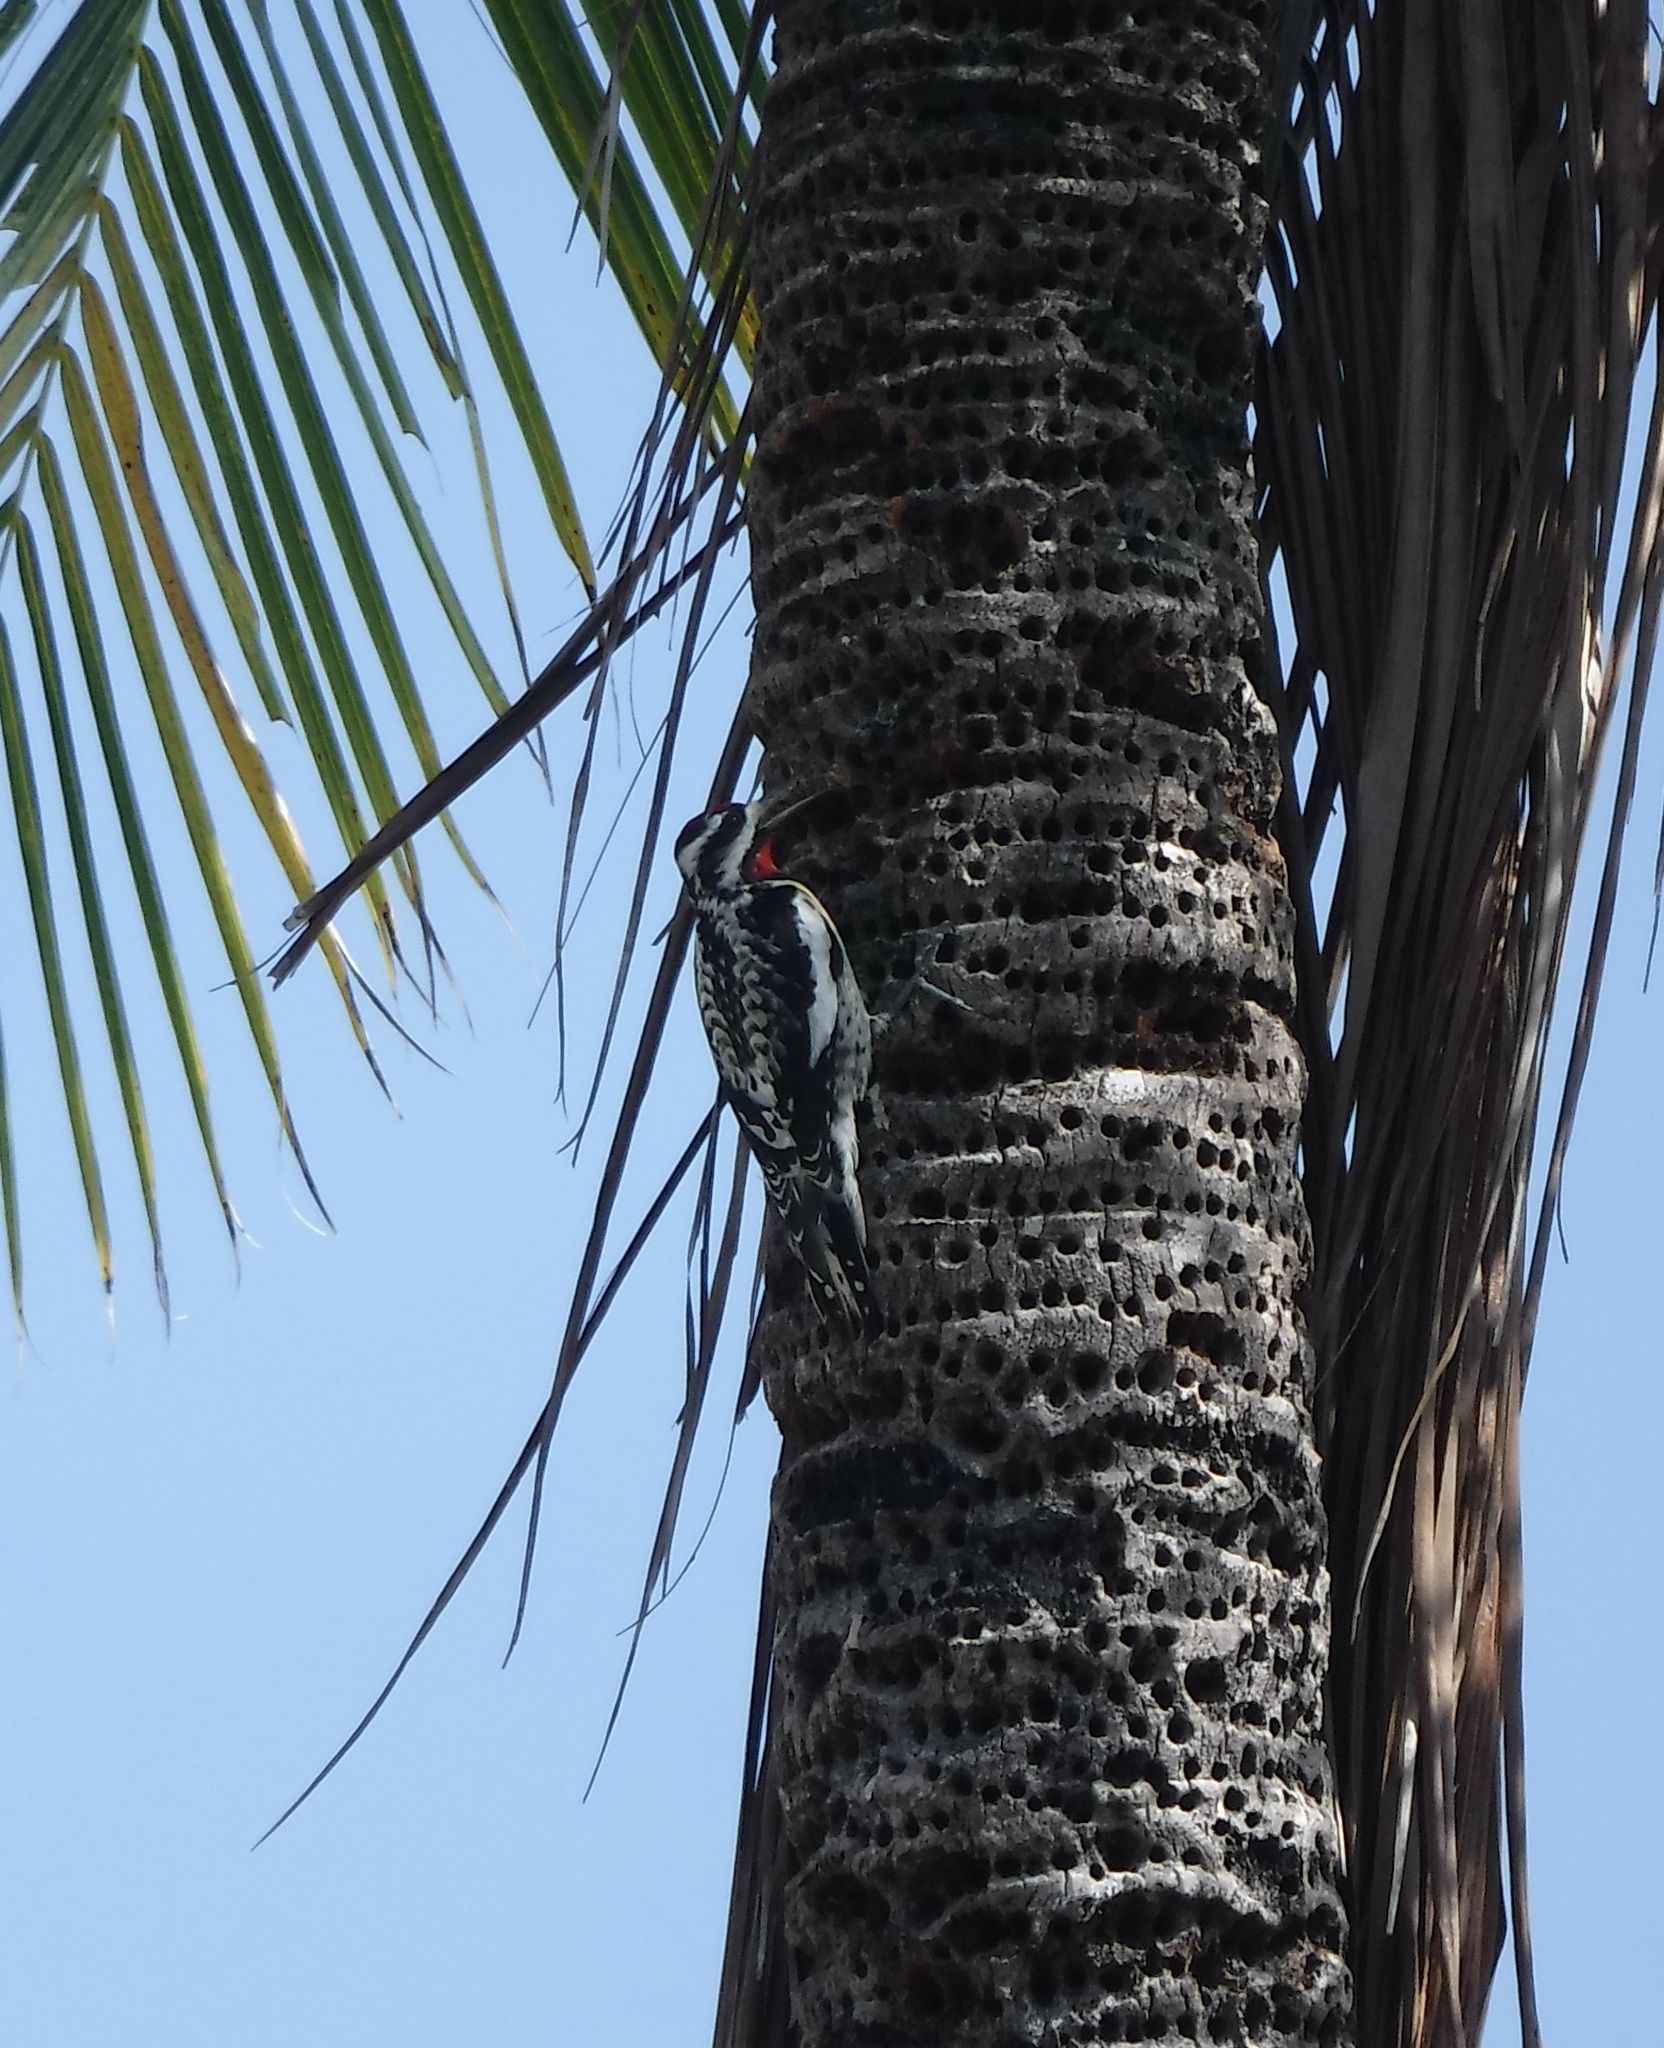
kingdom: Animalia
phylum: Chordata
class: Aves
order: Piciformes
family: Picidae
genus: Sphyrapicus
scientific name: Sphyrapicus varius
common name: Yellow-bellied sapsucker
